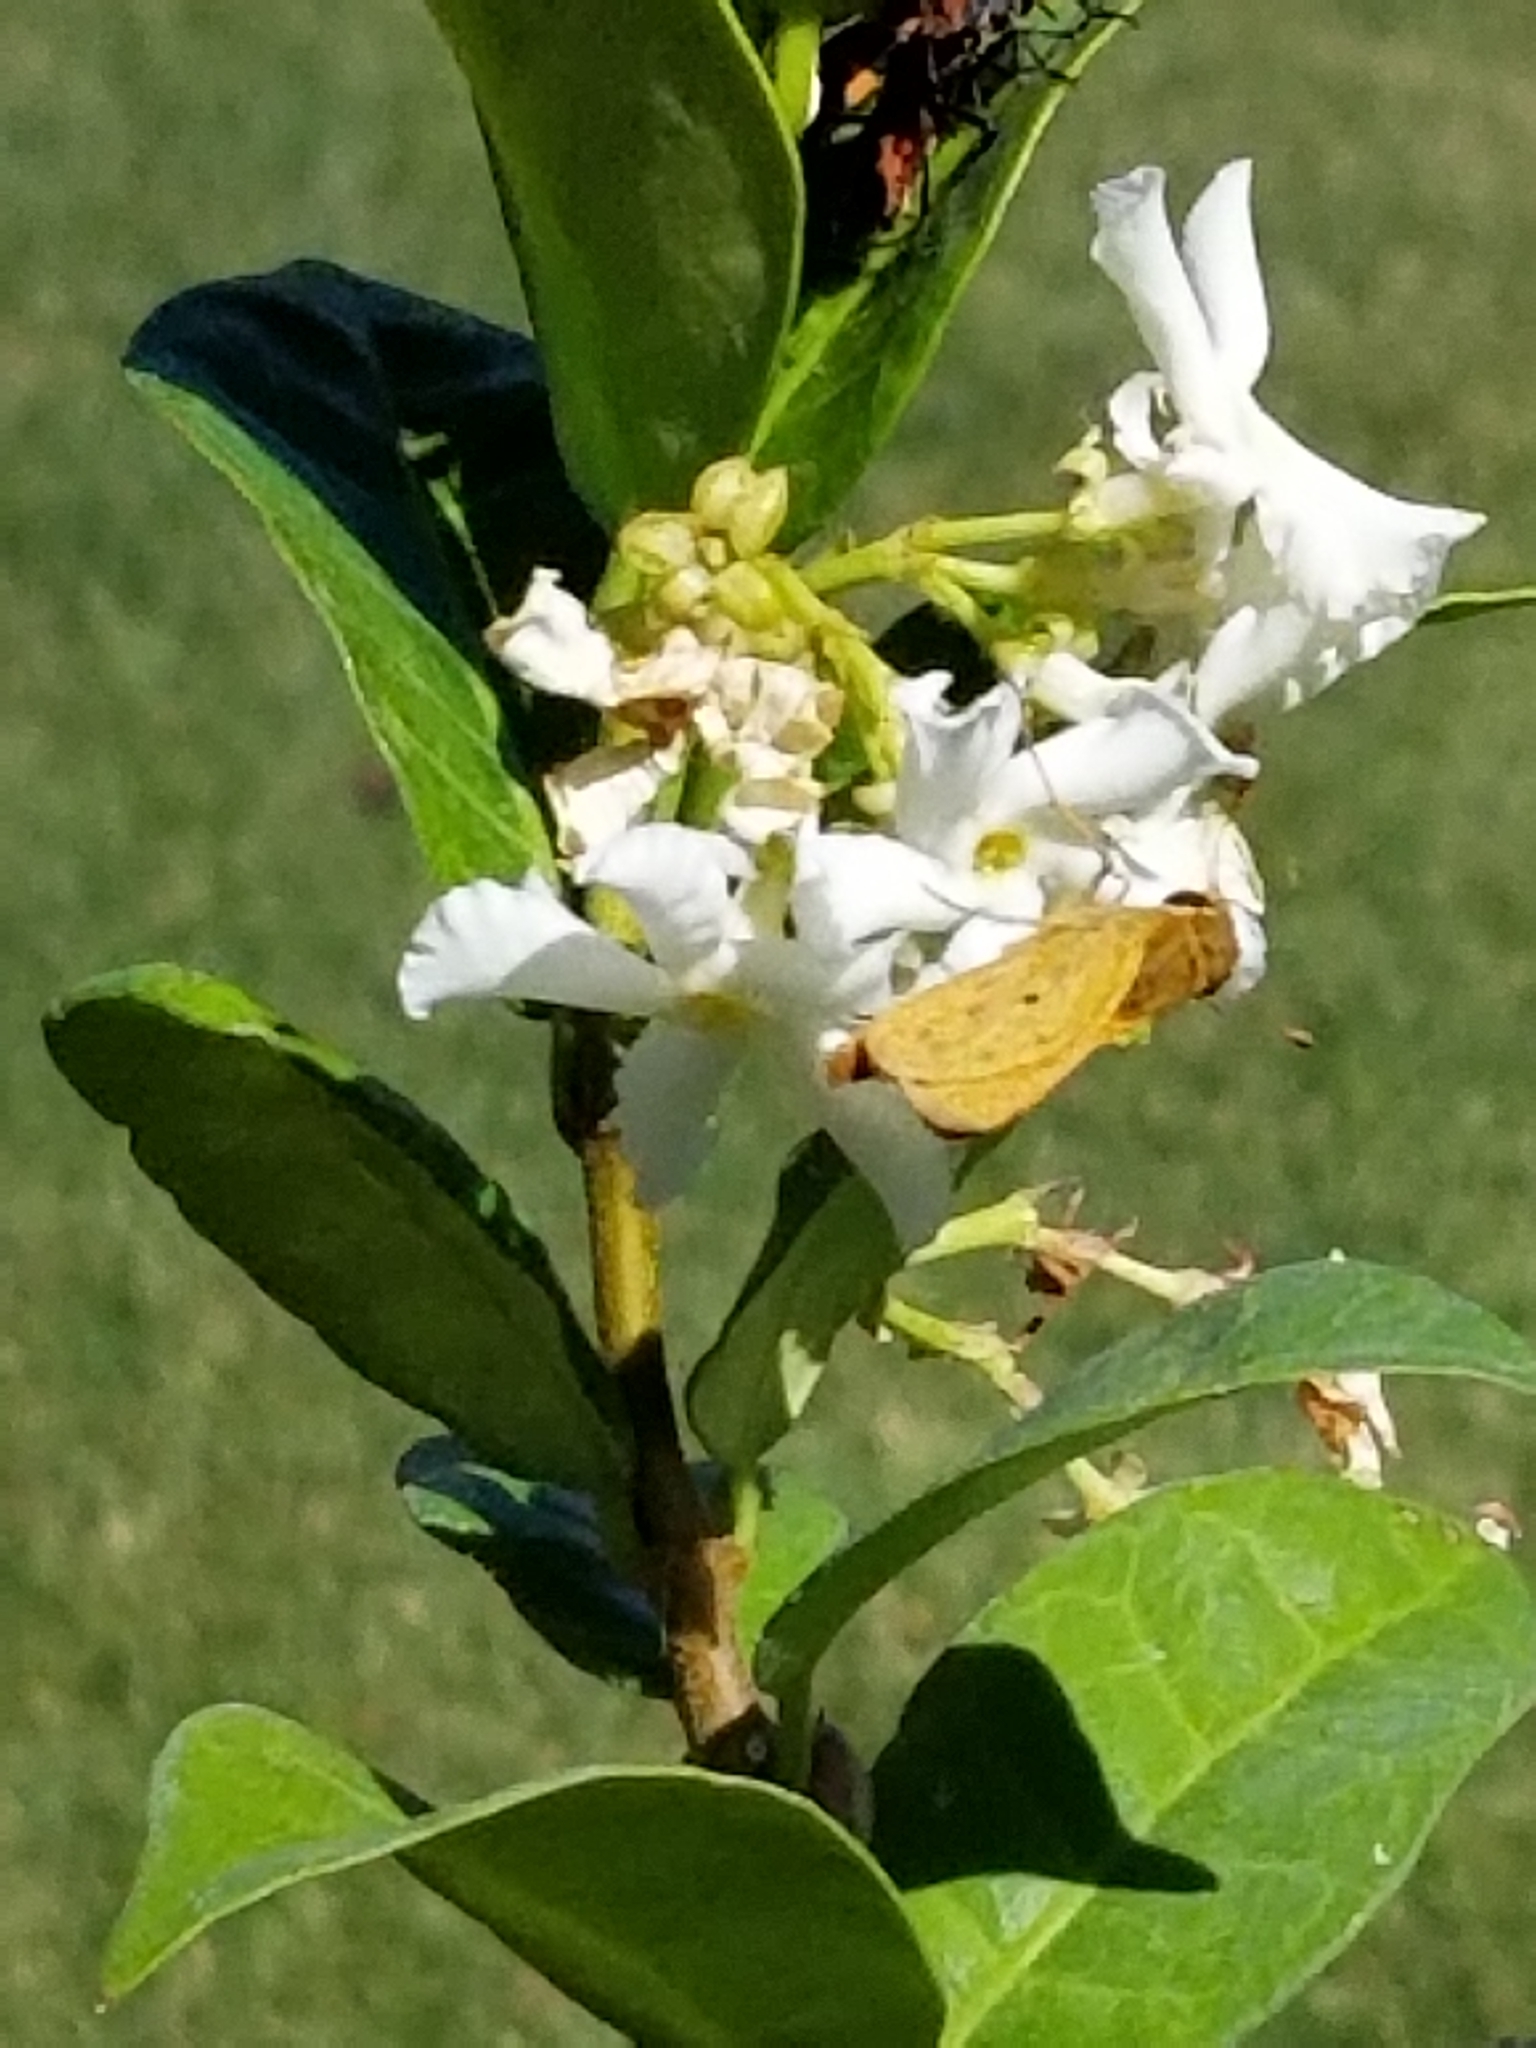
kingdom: Animalia
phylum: Arthropoda
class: Insecta
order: Lepidoptera
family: Hesperiidae
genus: Hylephila
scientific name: Hylephila phyleus
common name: Fiery skipper
